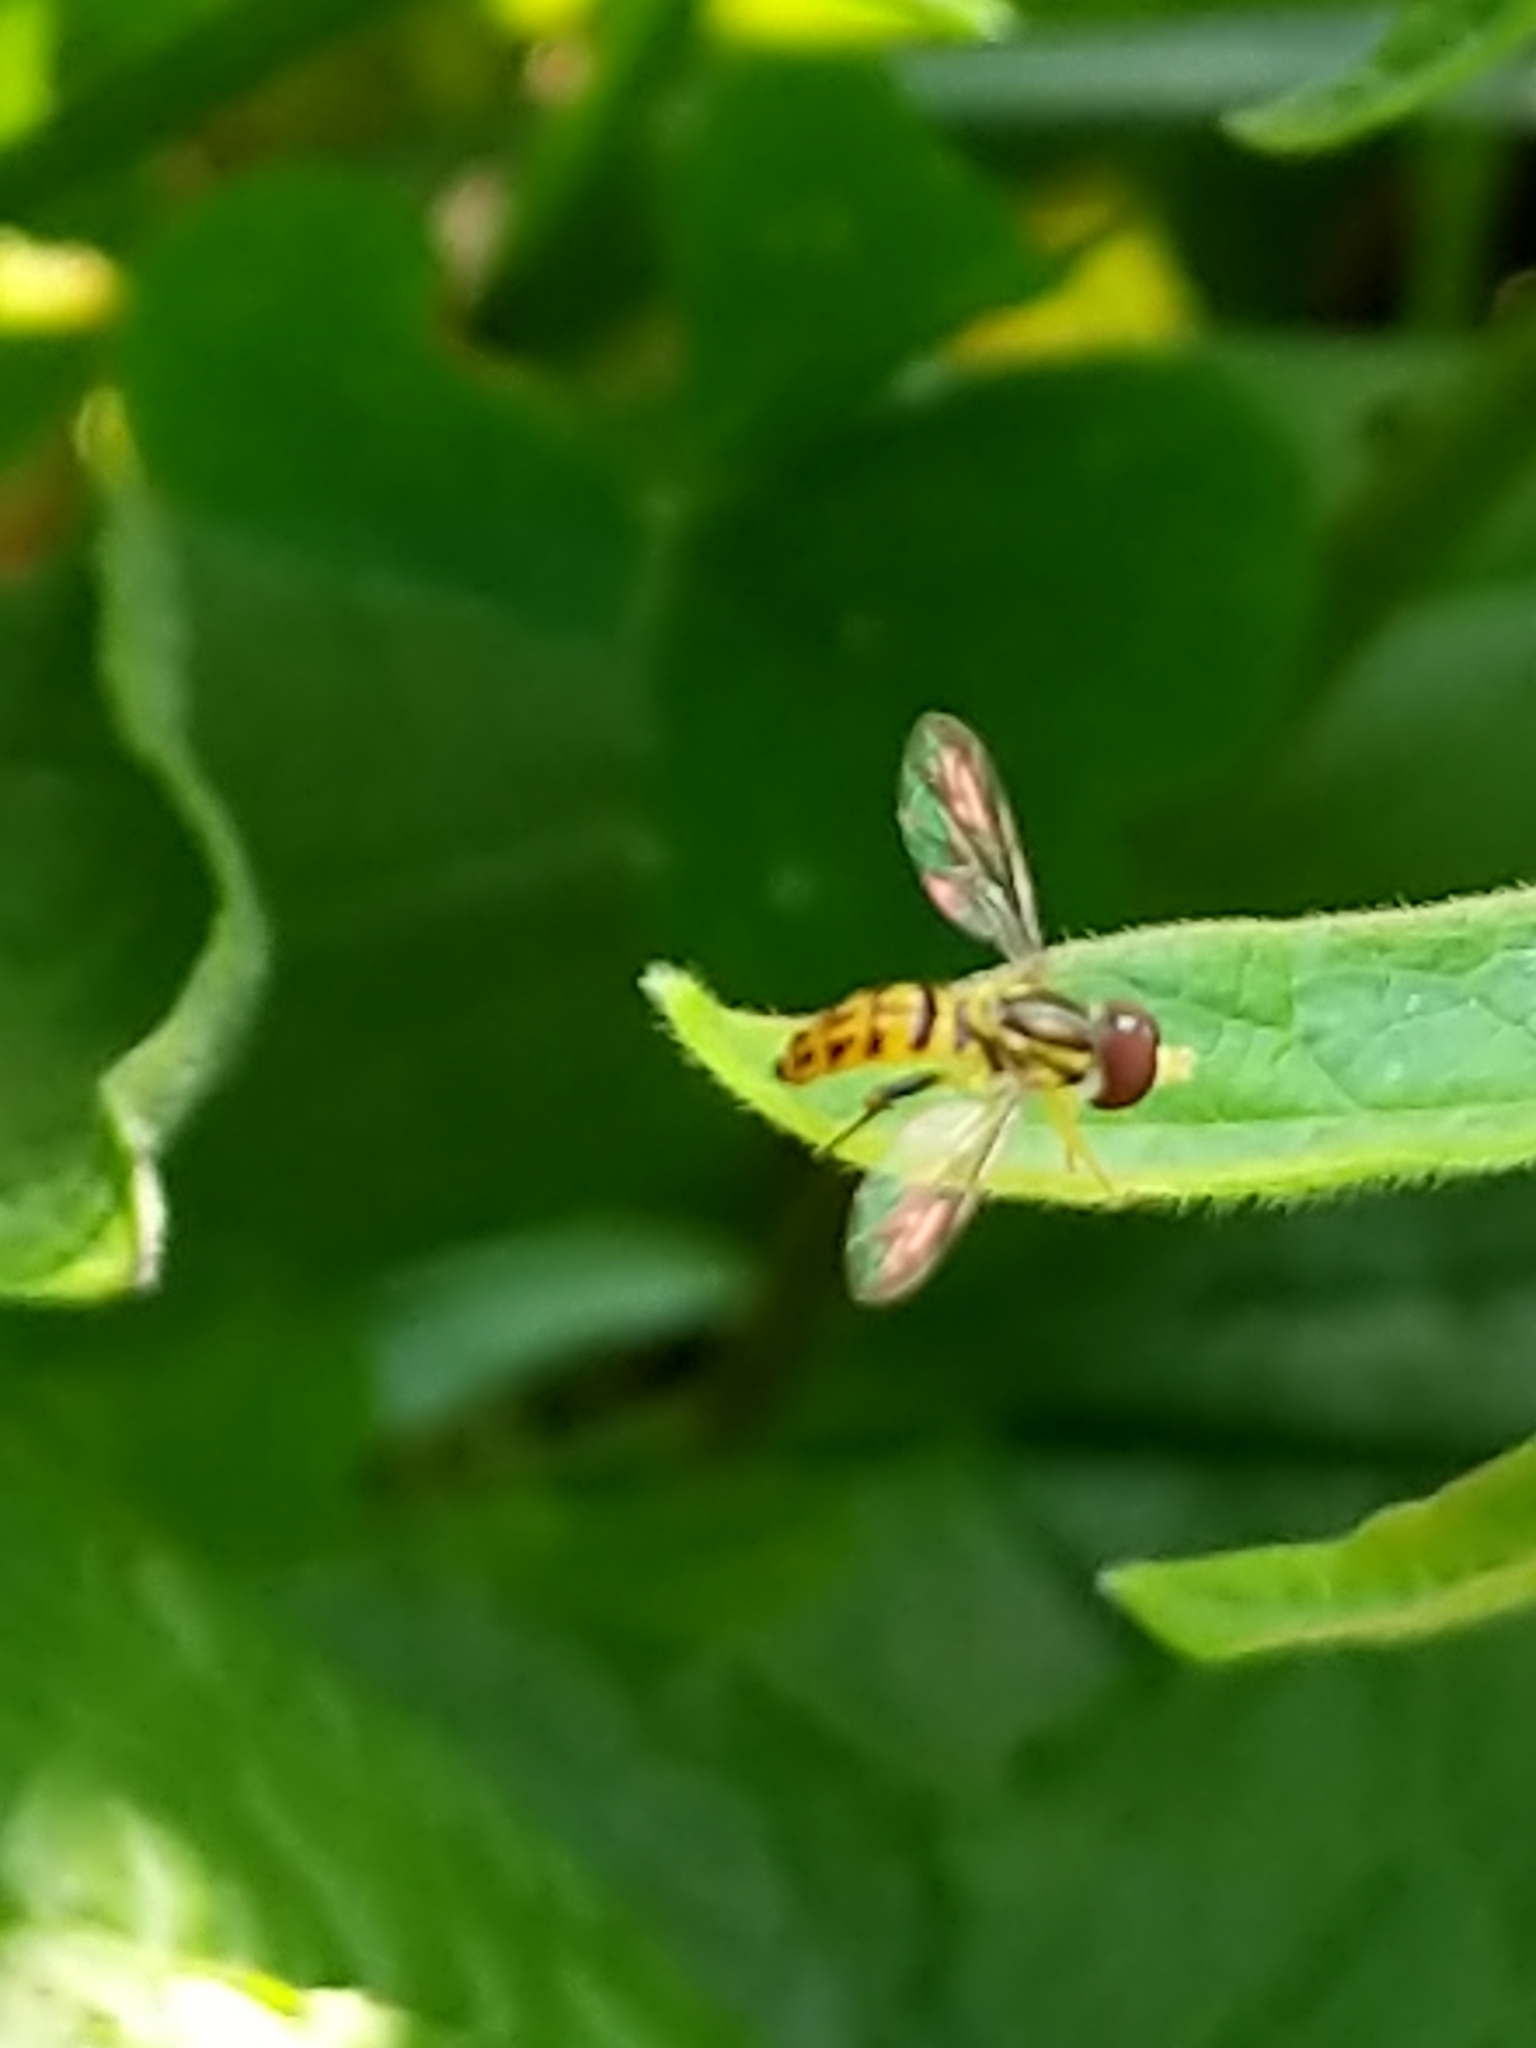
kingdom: Animalia
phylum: Arthropoda
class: Insecta
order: Diptera
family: Syrphidae
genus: Toxomerus
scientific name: Toxomerus geminatus
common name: Eastern calligrapher
